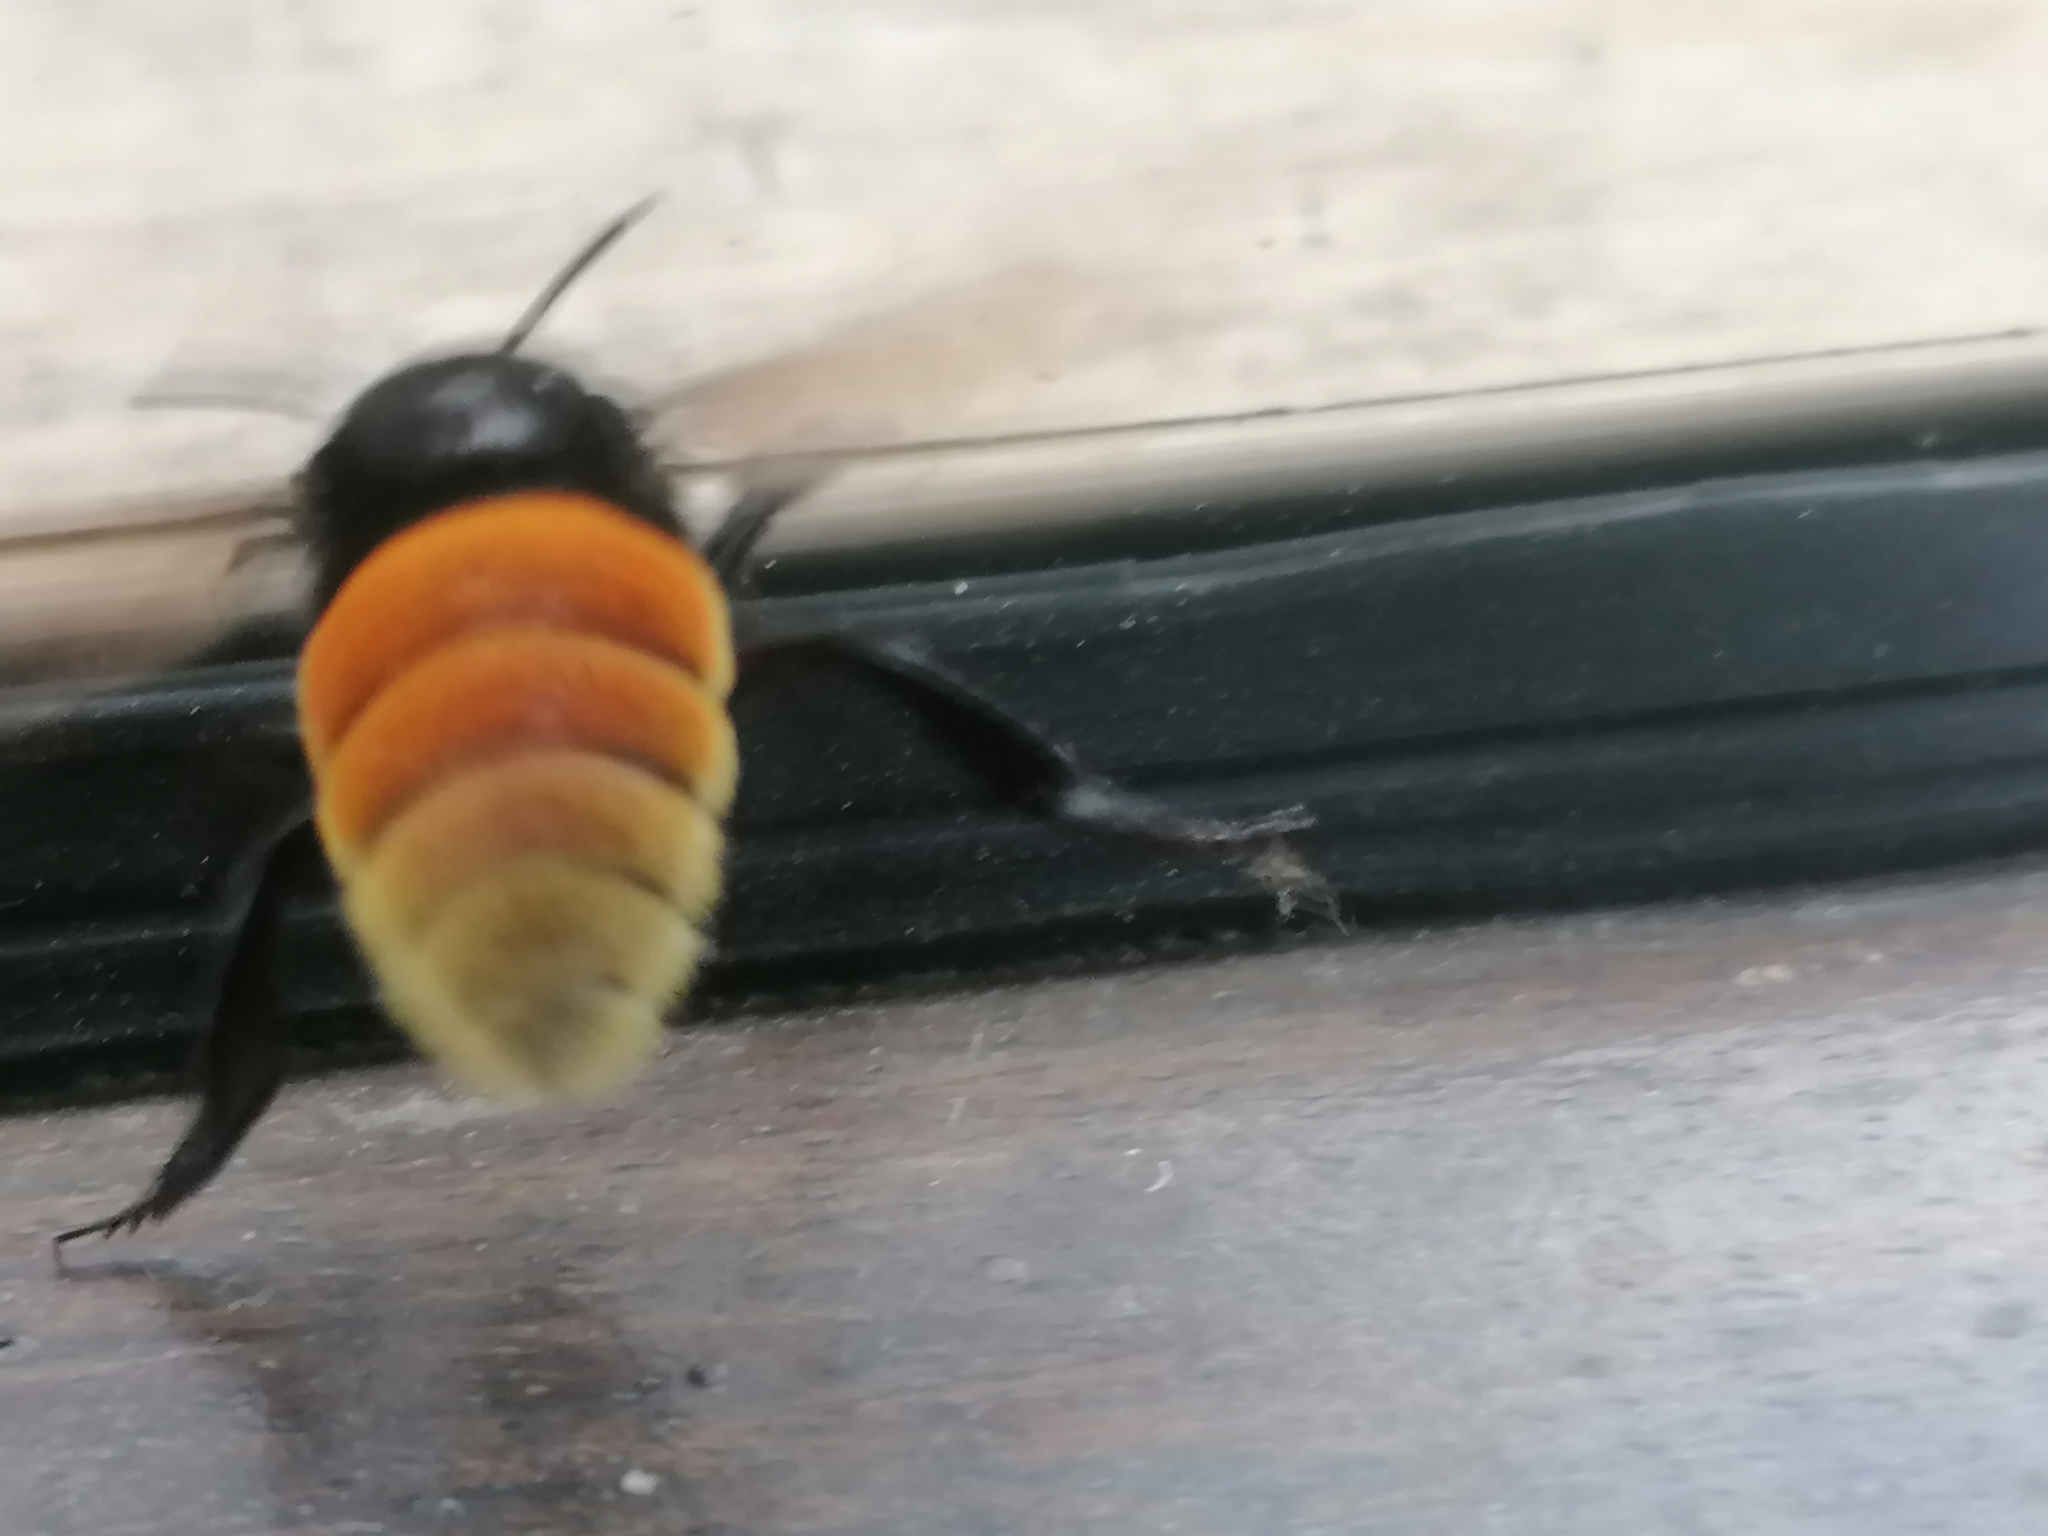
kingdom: Animalia
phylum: Arthropoda
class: Insecta
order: Hymenoptera
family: Apidae
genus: Eulaema
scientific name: Eulaema polychroma
